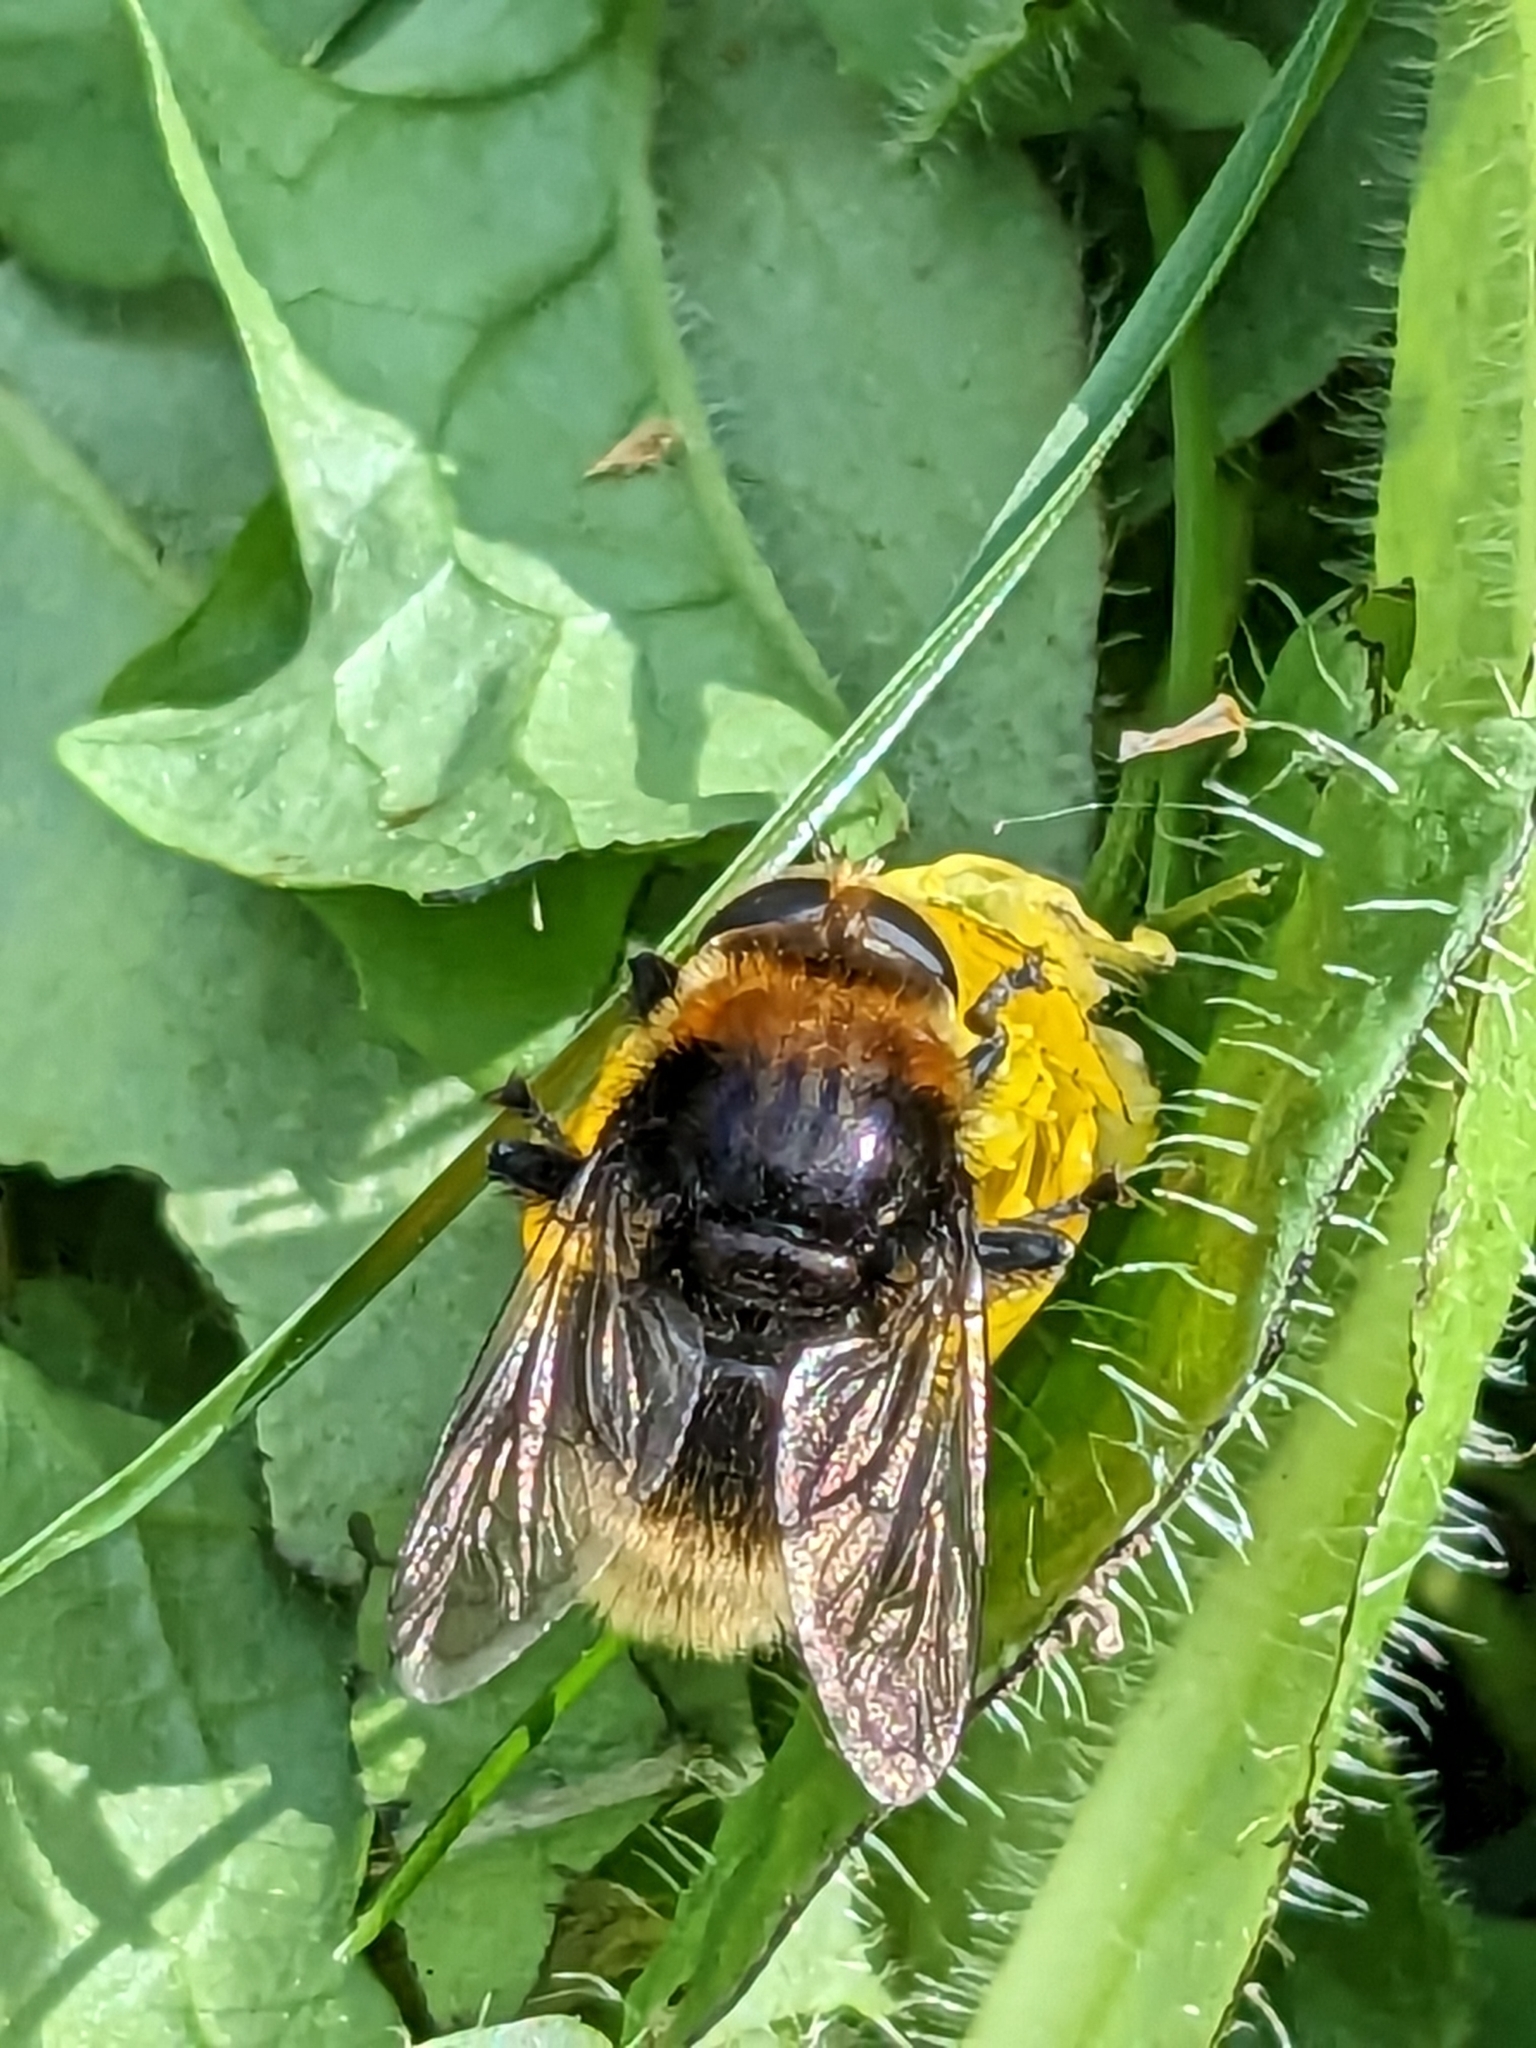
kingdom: Animalia
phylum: Arthropoda
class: Insecta
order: Diptera
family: Syrphidae
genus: Merodon
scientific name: Merodon equestris
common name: Greater bulb-fly
